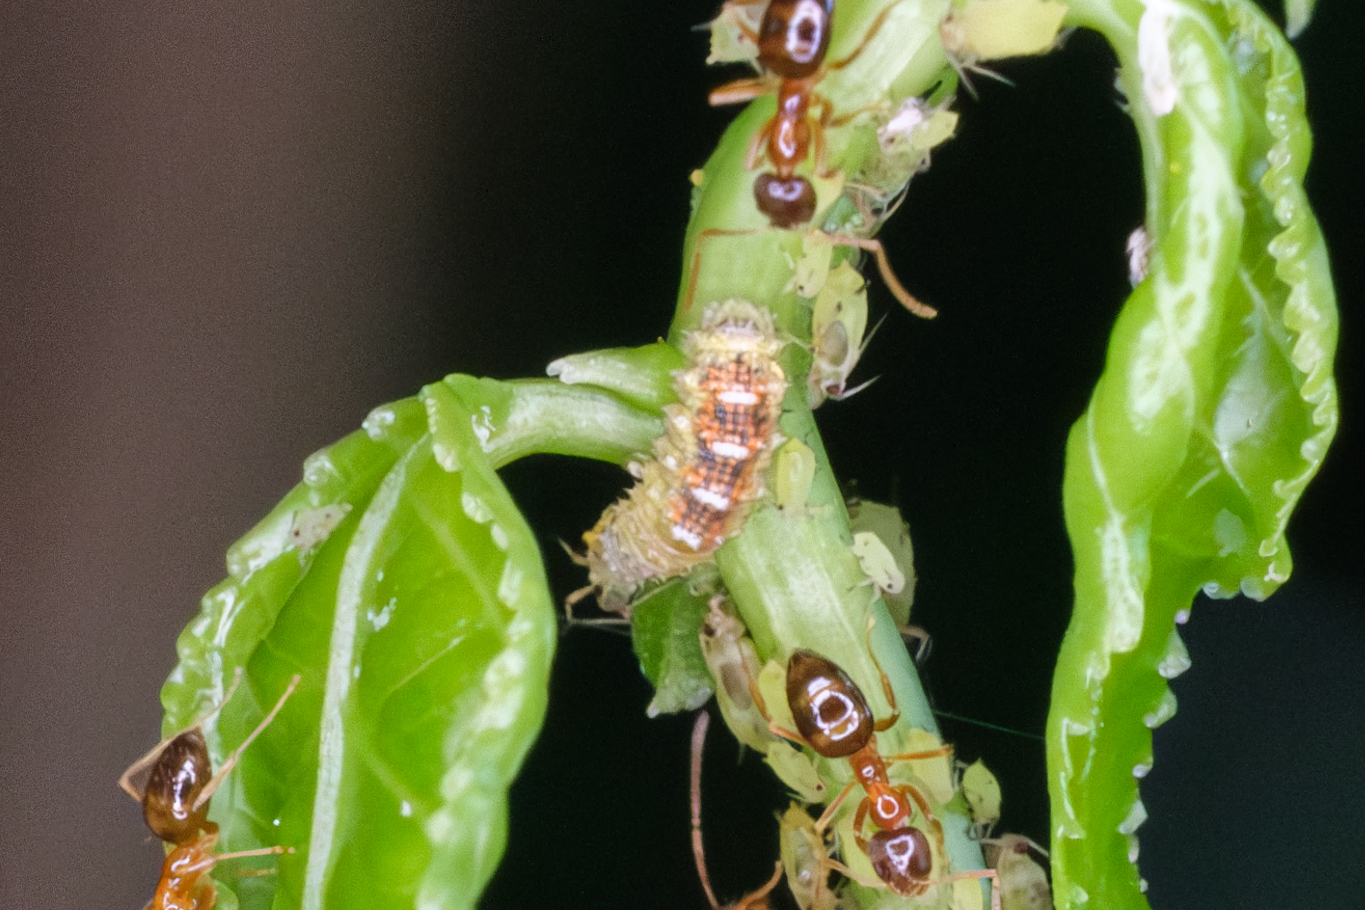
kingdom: Animalia
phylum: Arthropoda
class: Insecta
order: Diptera
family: Syrphidae
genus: Eupeodes
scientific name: Eupeodes pomus
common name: Short-tailed aphideater
